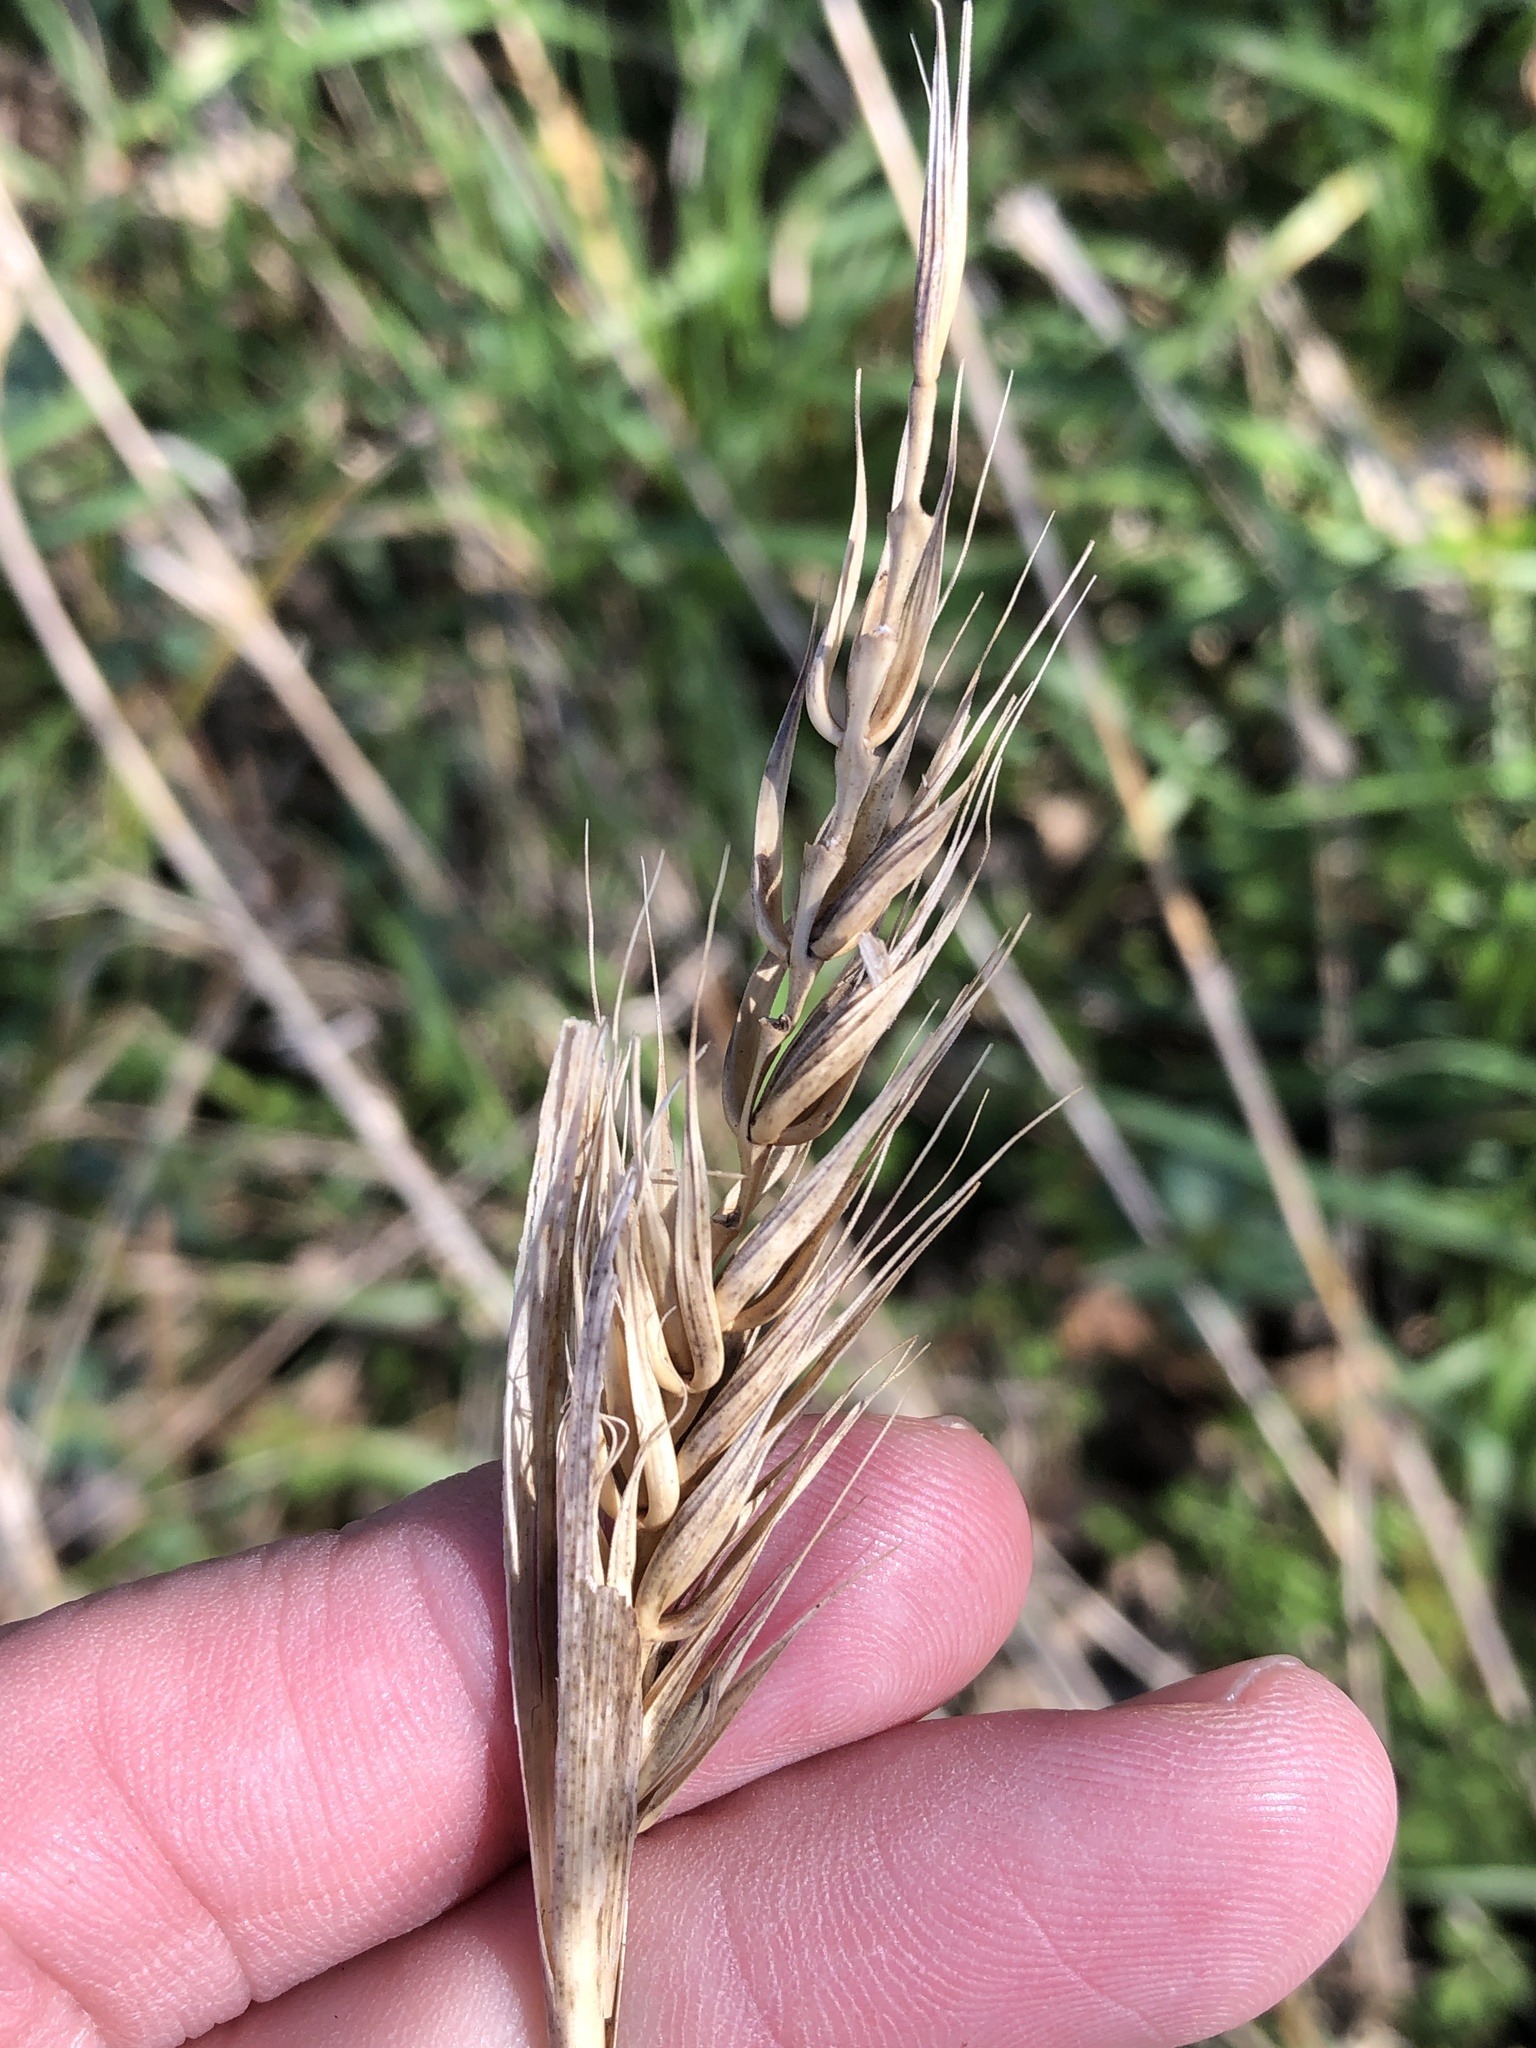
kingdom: Plantae
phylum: Tracheophyta
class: Liliopsida
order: Poales
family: Poaceae
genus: Elymus
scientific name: Elymus virginicus
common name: Common eastern wildrye
